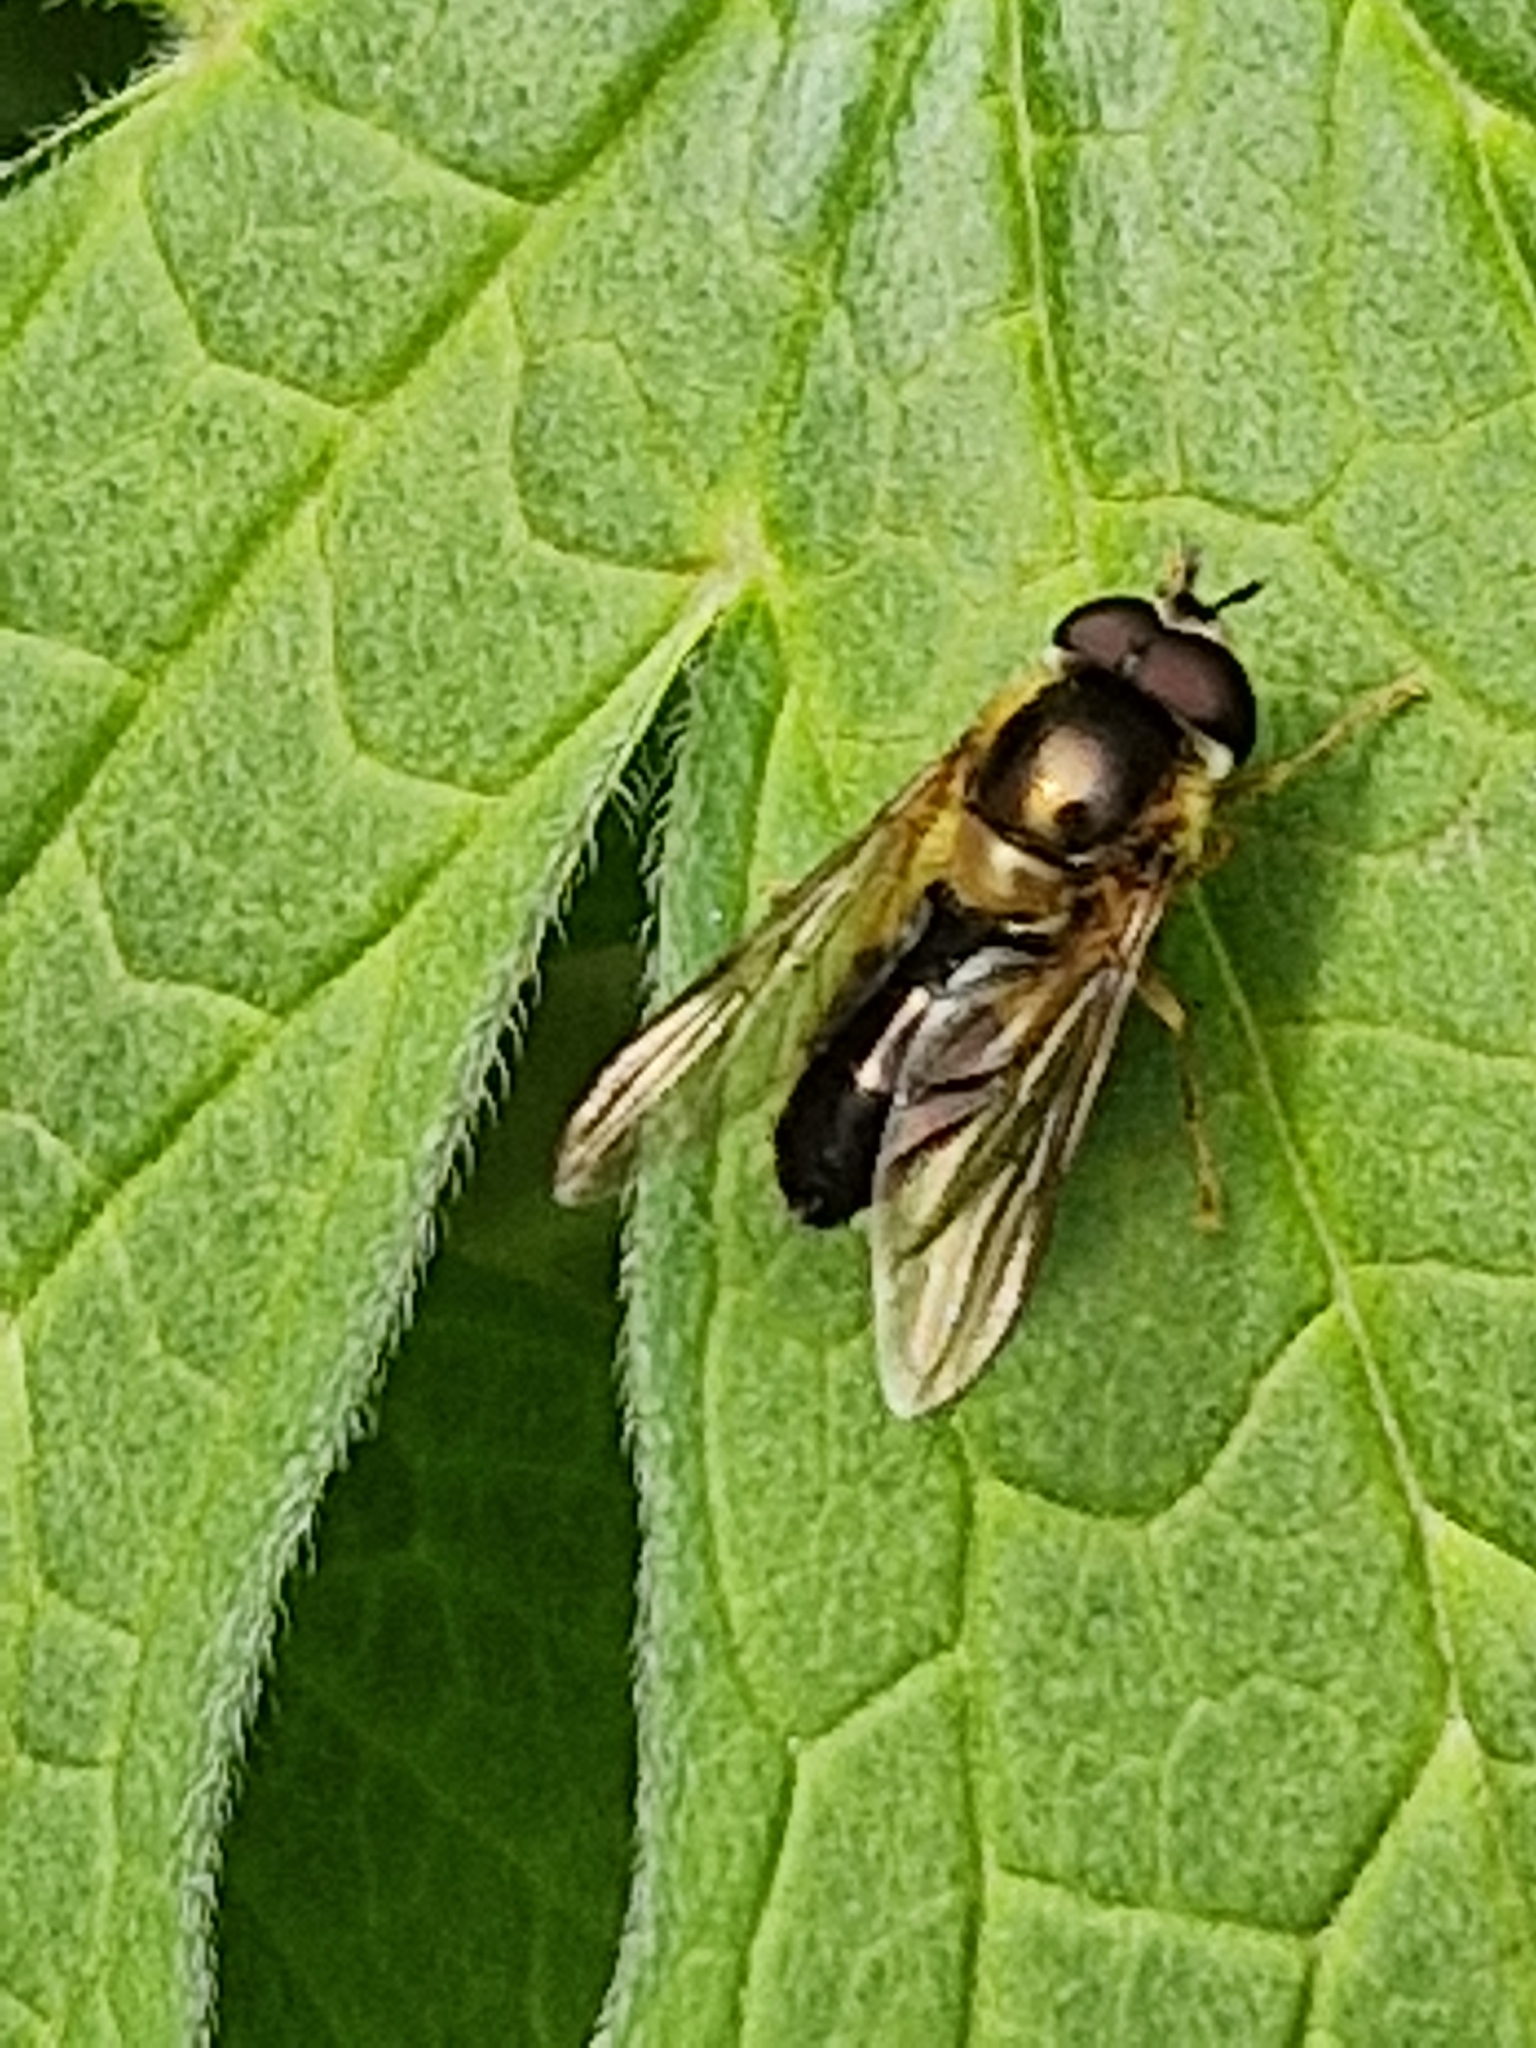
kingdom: Animalia
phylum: Arthropoda
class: Insecta
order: Diptera
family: Syrphidae
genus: Epistrophe
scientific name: Epistrophe eligans
